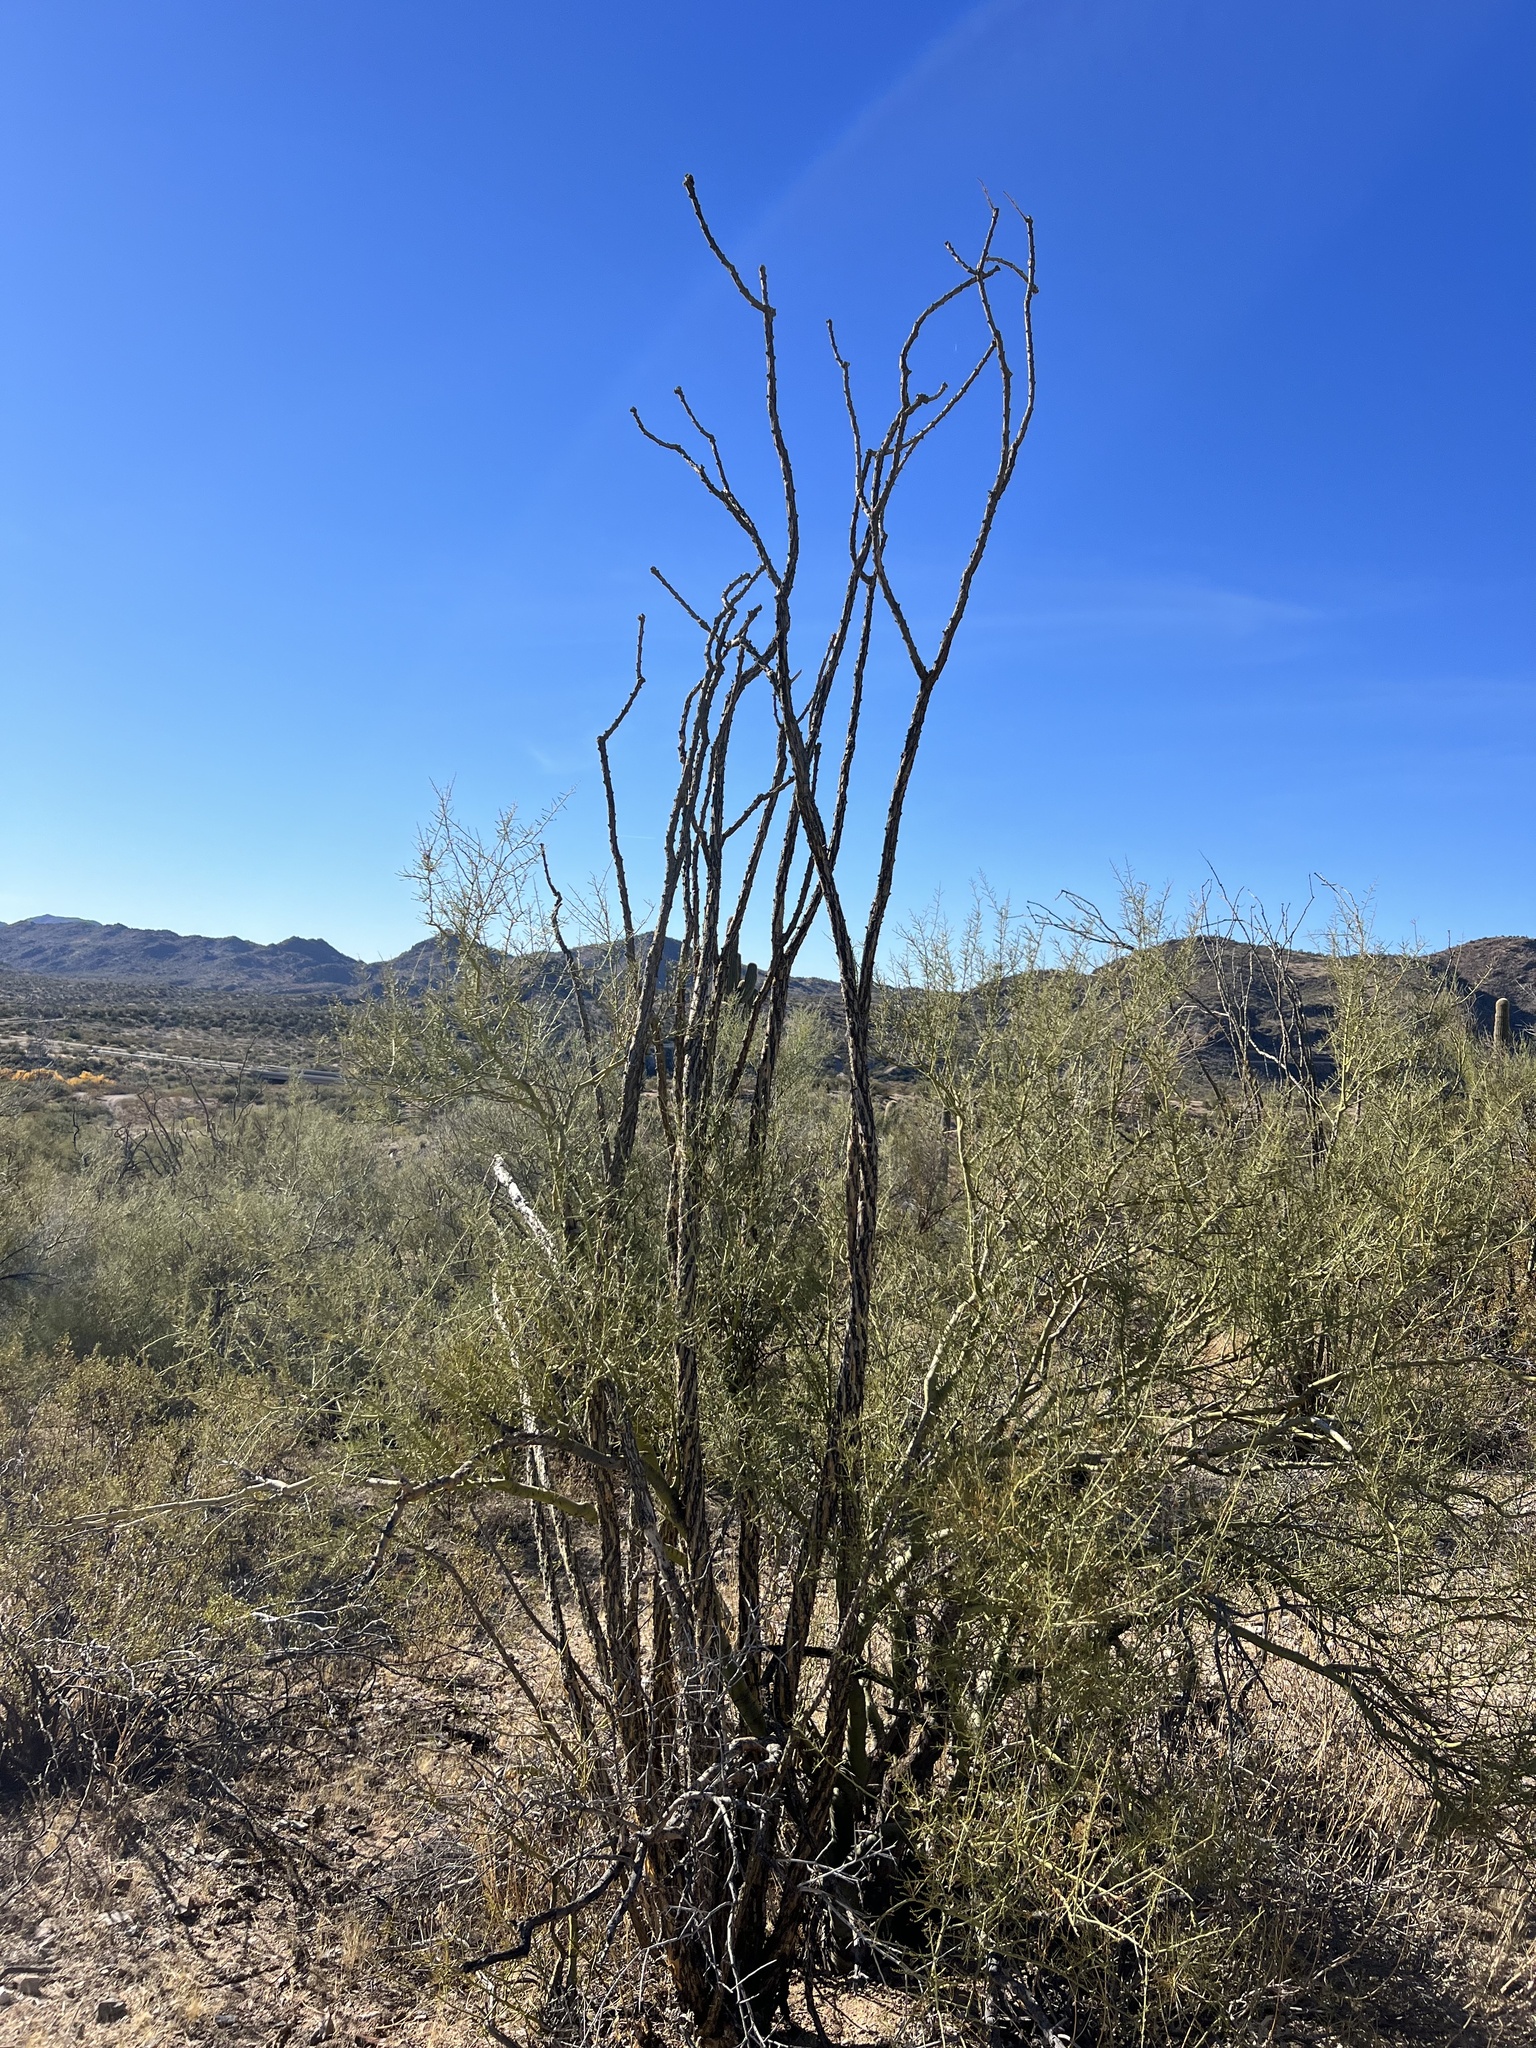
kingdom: Plantae
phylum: Tracheophyta
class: Magnoliopsida
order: Ericales
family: Fouquieriaceae
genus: Fouquieria
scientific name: Fouquieria splendens
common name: Vine-cactus
